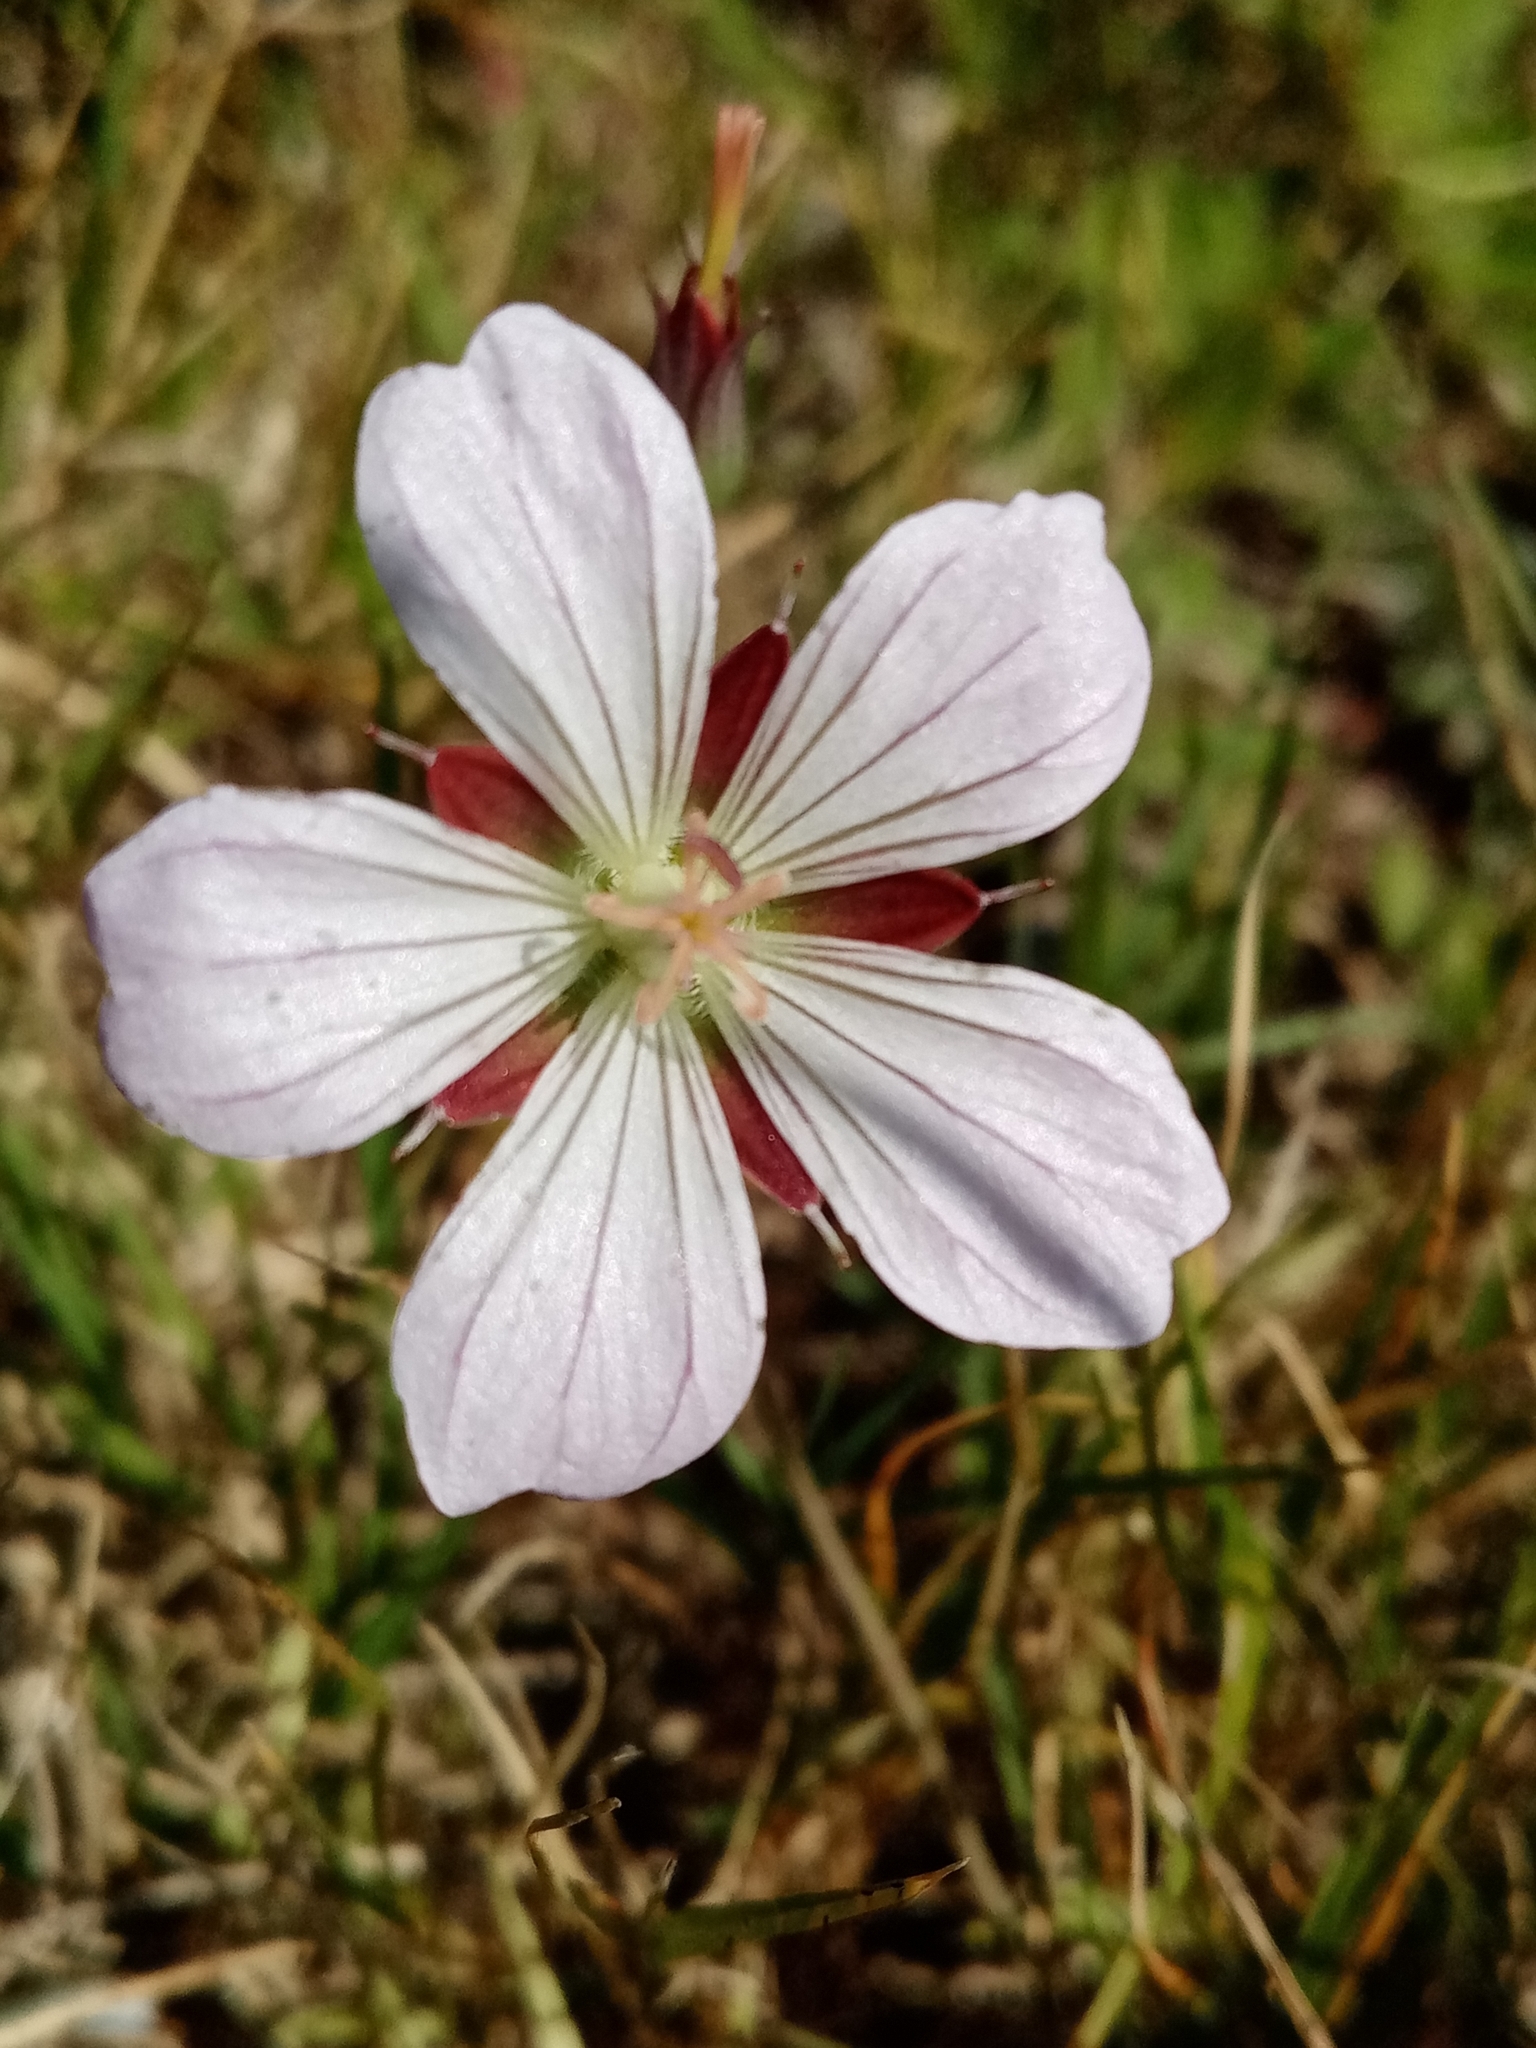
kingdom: Plantae
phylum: Tracheophyta
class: Magnoliopsida
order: Geraniales
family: Geraniaceae
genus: Geranium
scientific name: Geranium incanum
